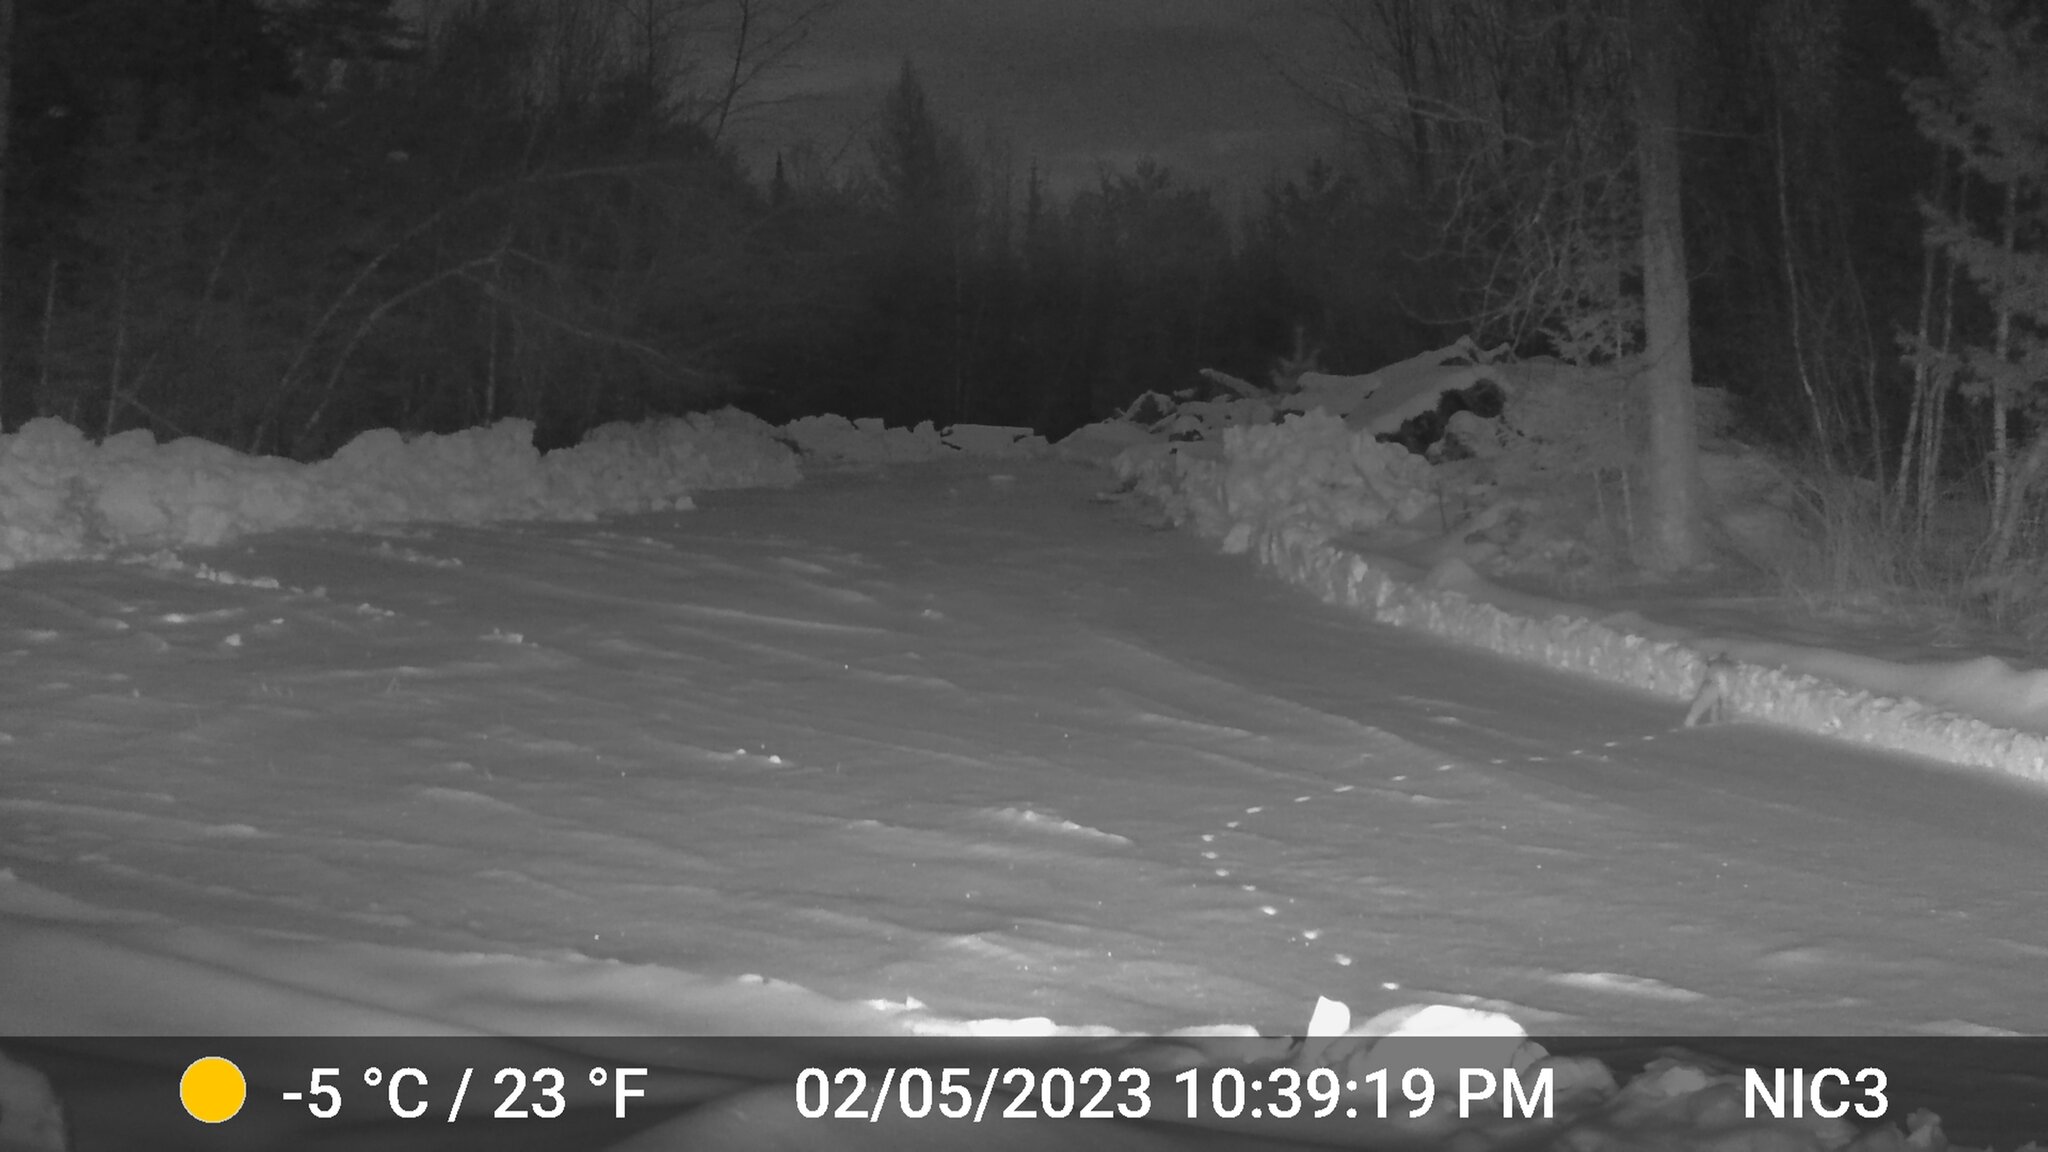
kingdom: Animalia
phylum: Chordata
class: Mammalia
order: Carnivora
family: Canidae
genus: Vulpes
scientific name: Vulpes vulpes
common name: Red fox
